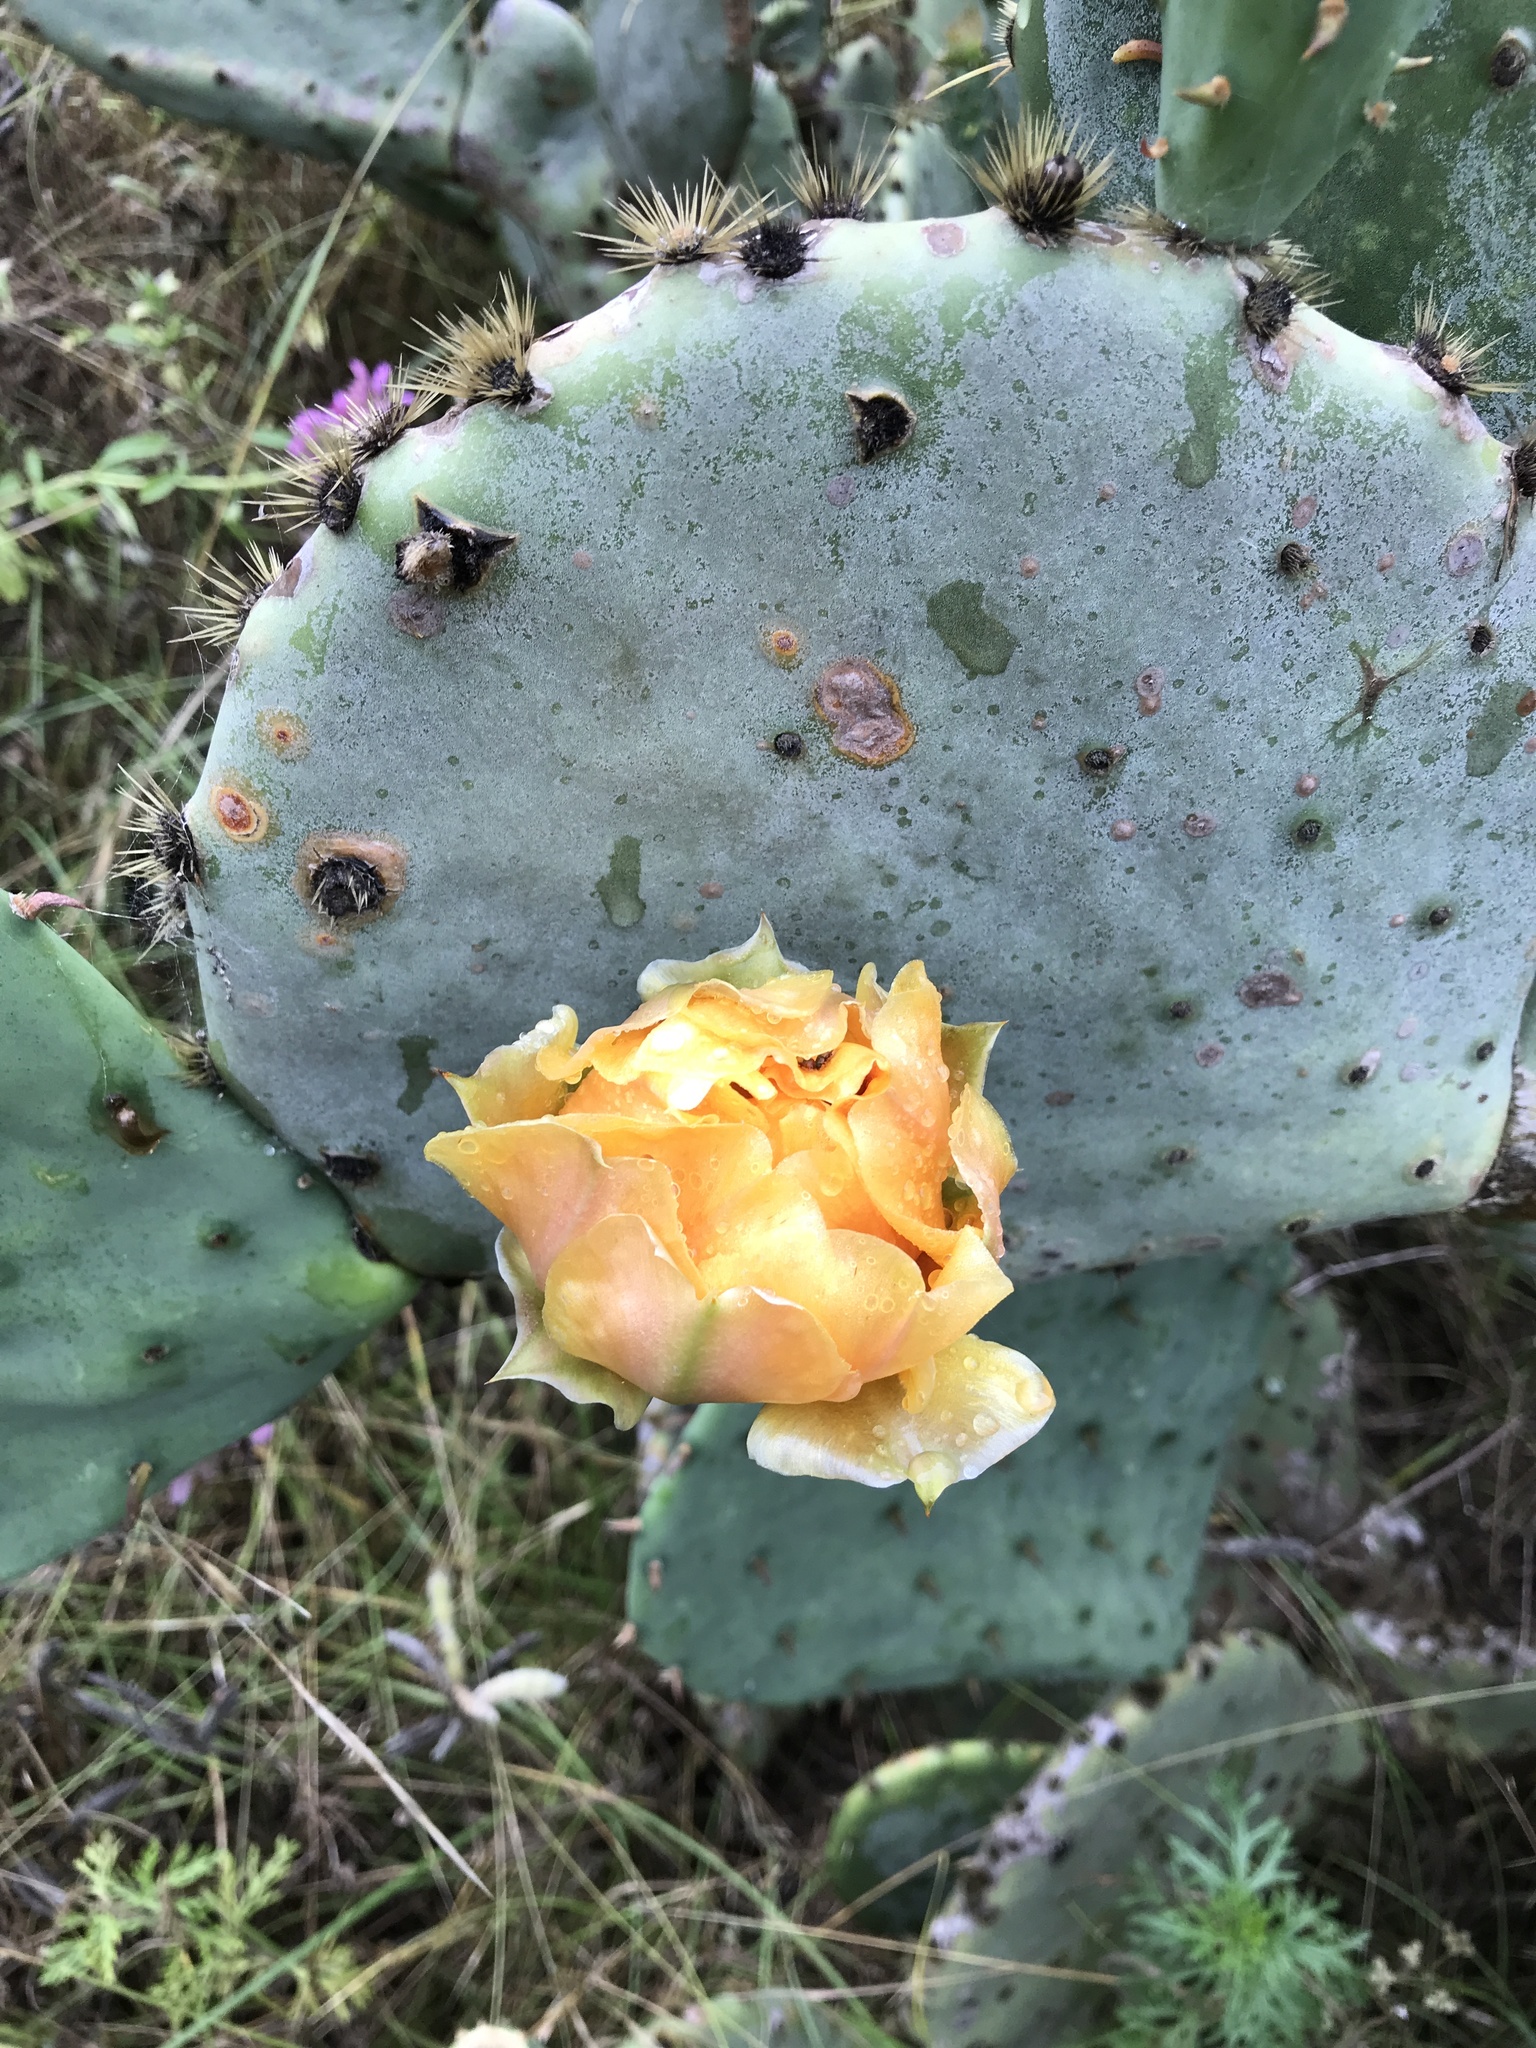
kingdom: Plantae
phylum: Tracheophyta
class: Magnoliopsida
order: Caryophyllales
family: Cactaceae
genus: Opuntia
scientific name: Opuntia engelmannii
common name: Cactus-apple
